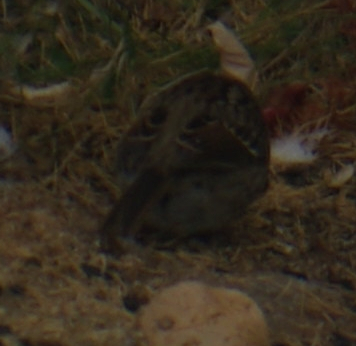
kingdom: Animalia
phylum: Chordata
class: Aves
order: Passeriformes
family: Passerellidae
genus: Zonotrichia
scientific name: Zonotrichia albicollis
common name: White-throated sparrow
